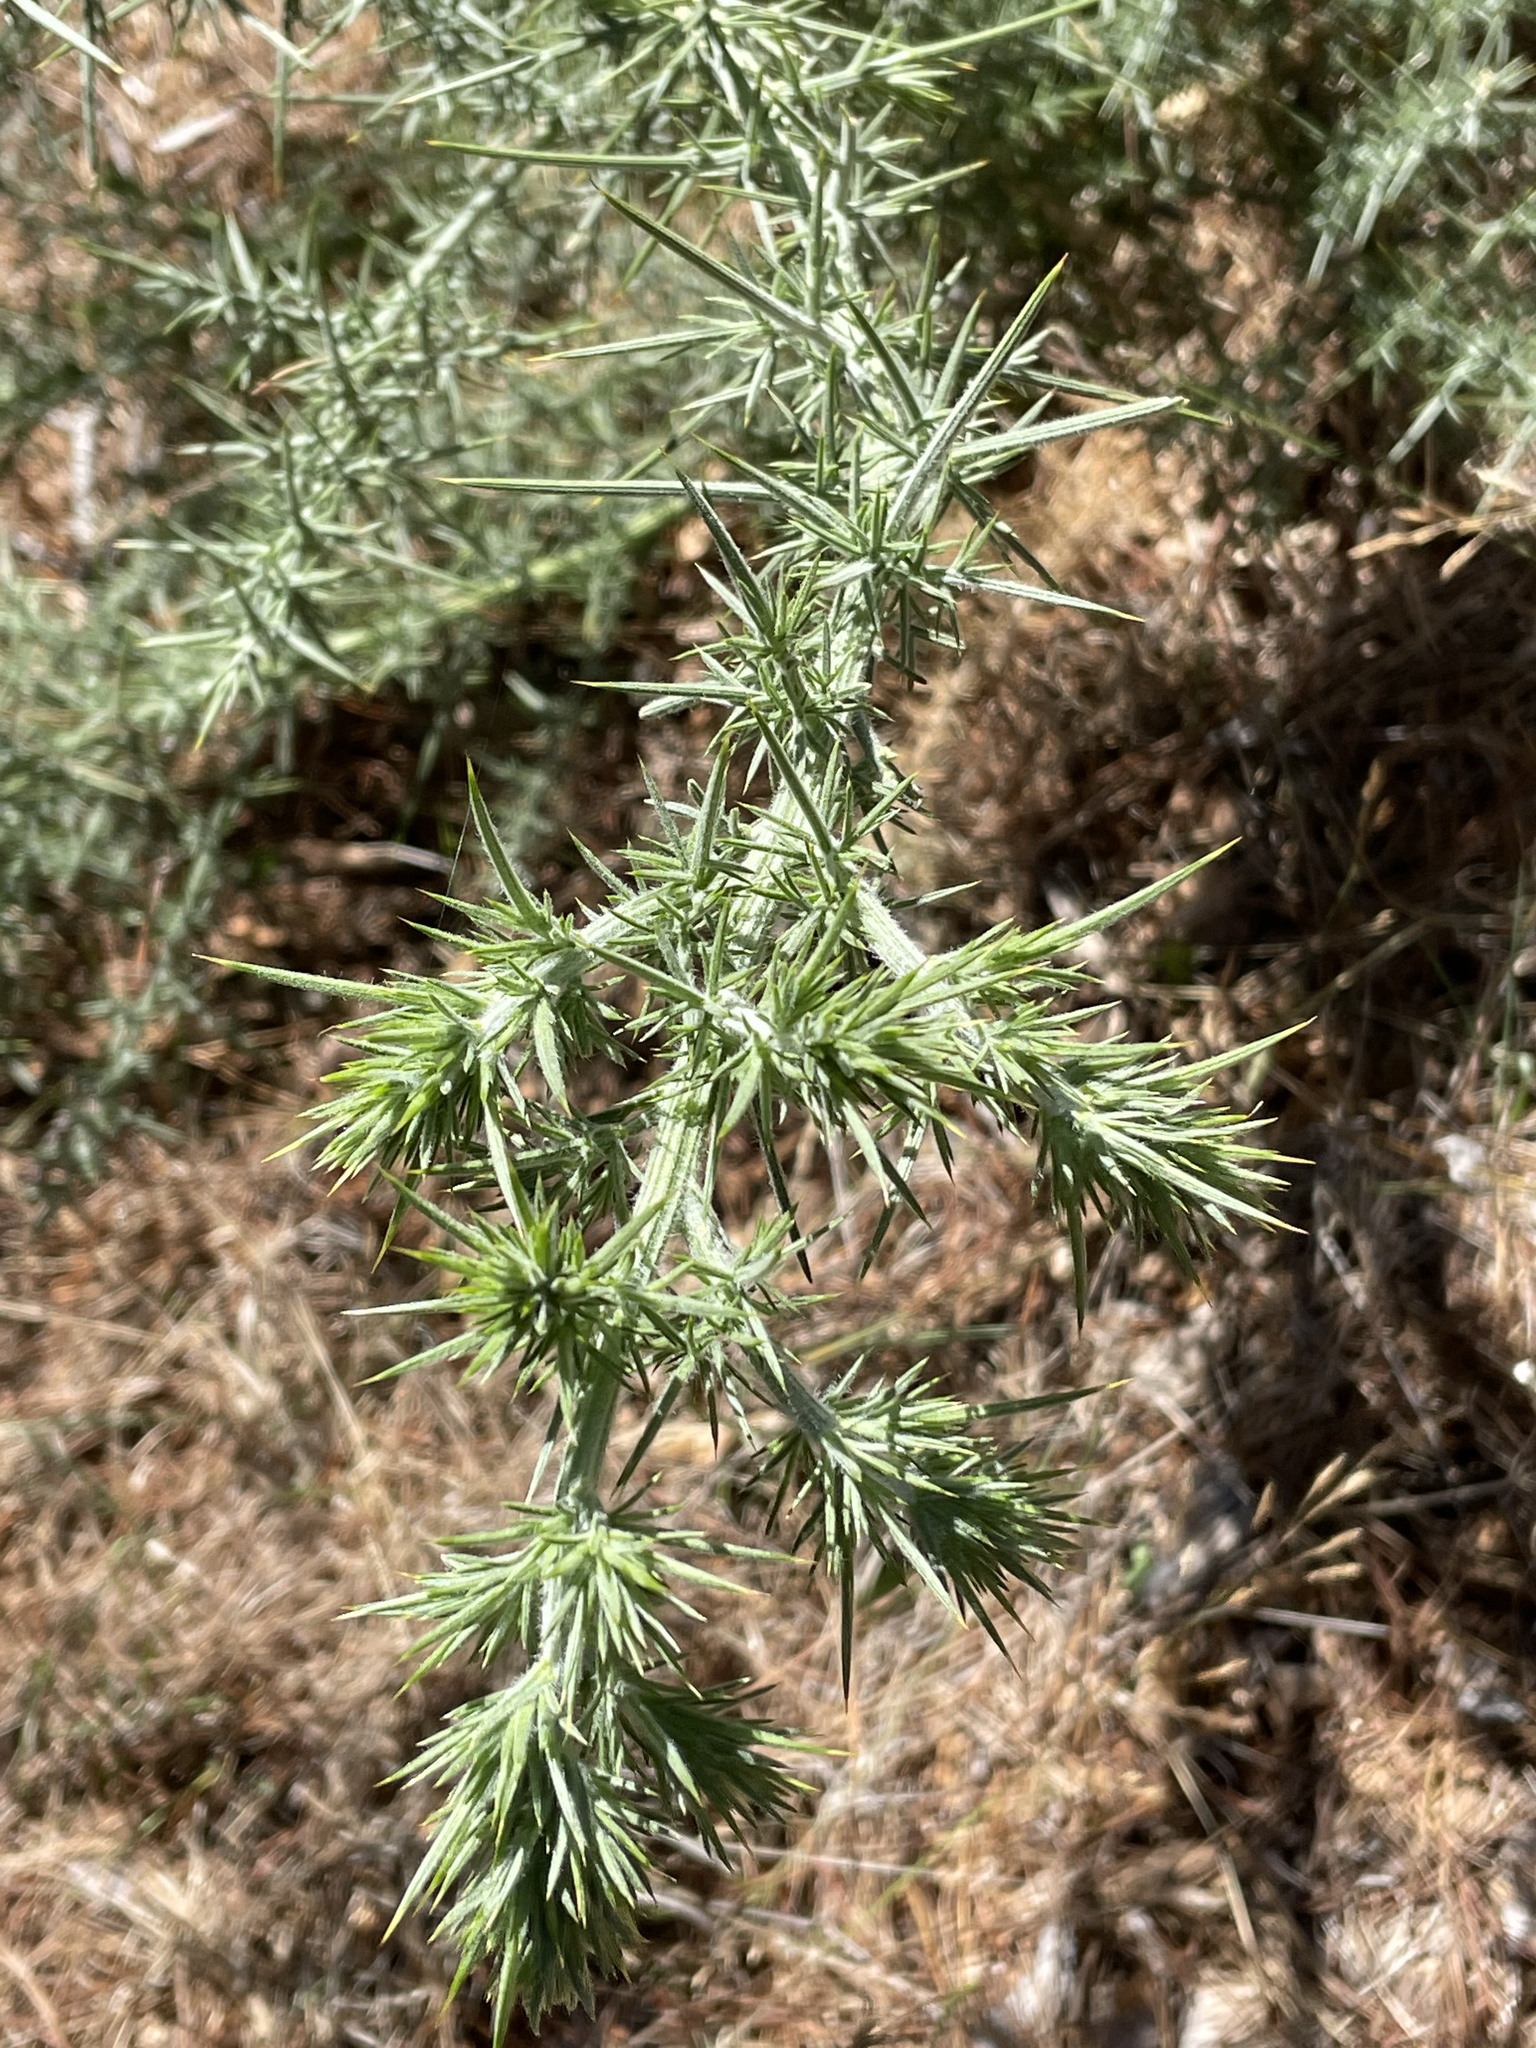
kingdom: Plantae
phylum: Tracheophyta
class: Magnoliopsida
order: Fabales
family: Fabaceae
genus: Ulex
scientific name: Ulex europaeus
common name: Common gorse
